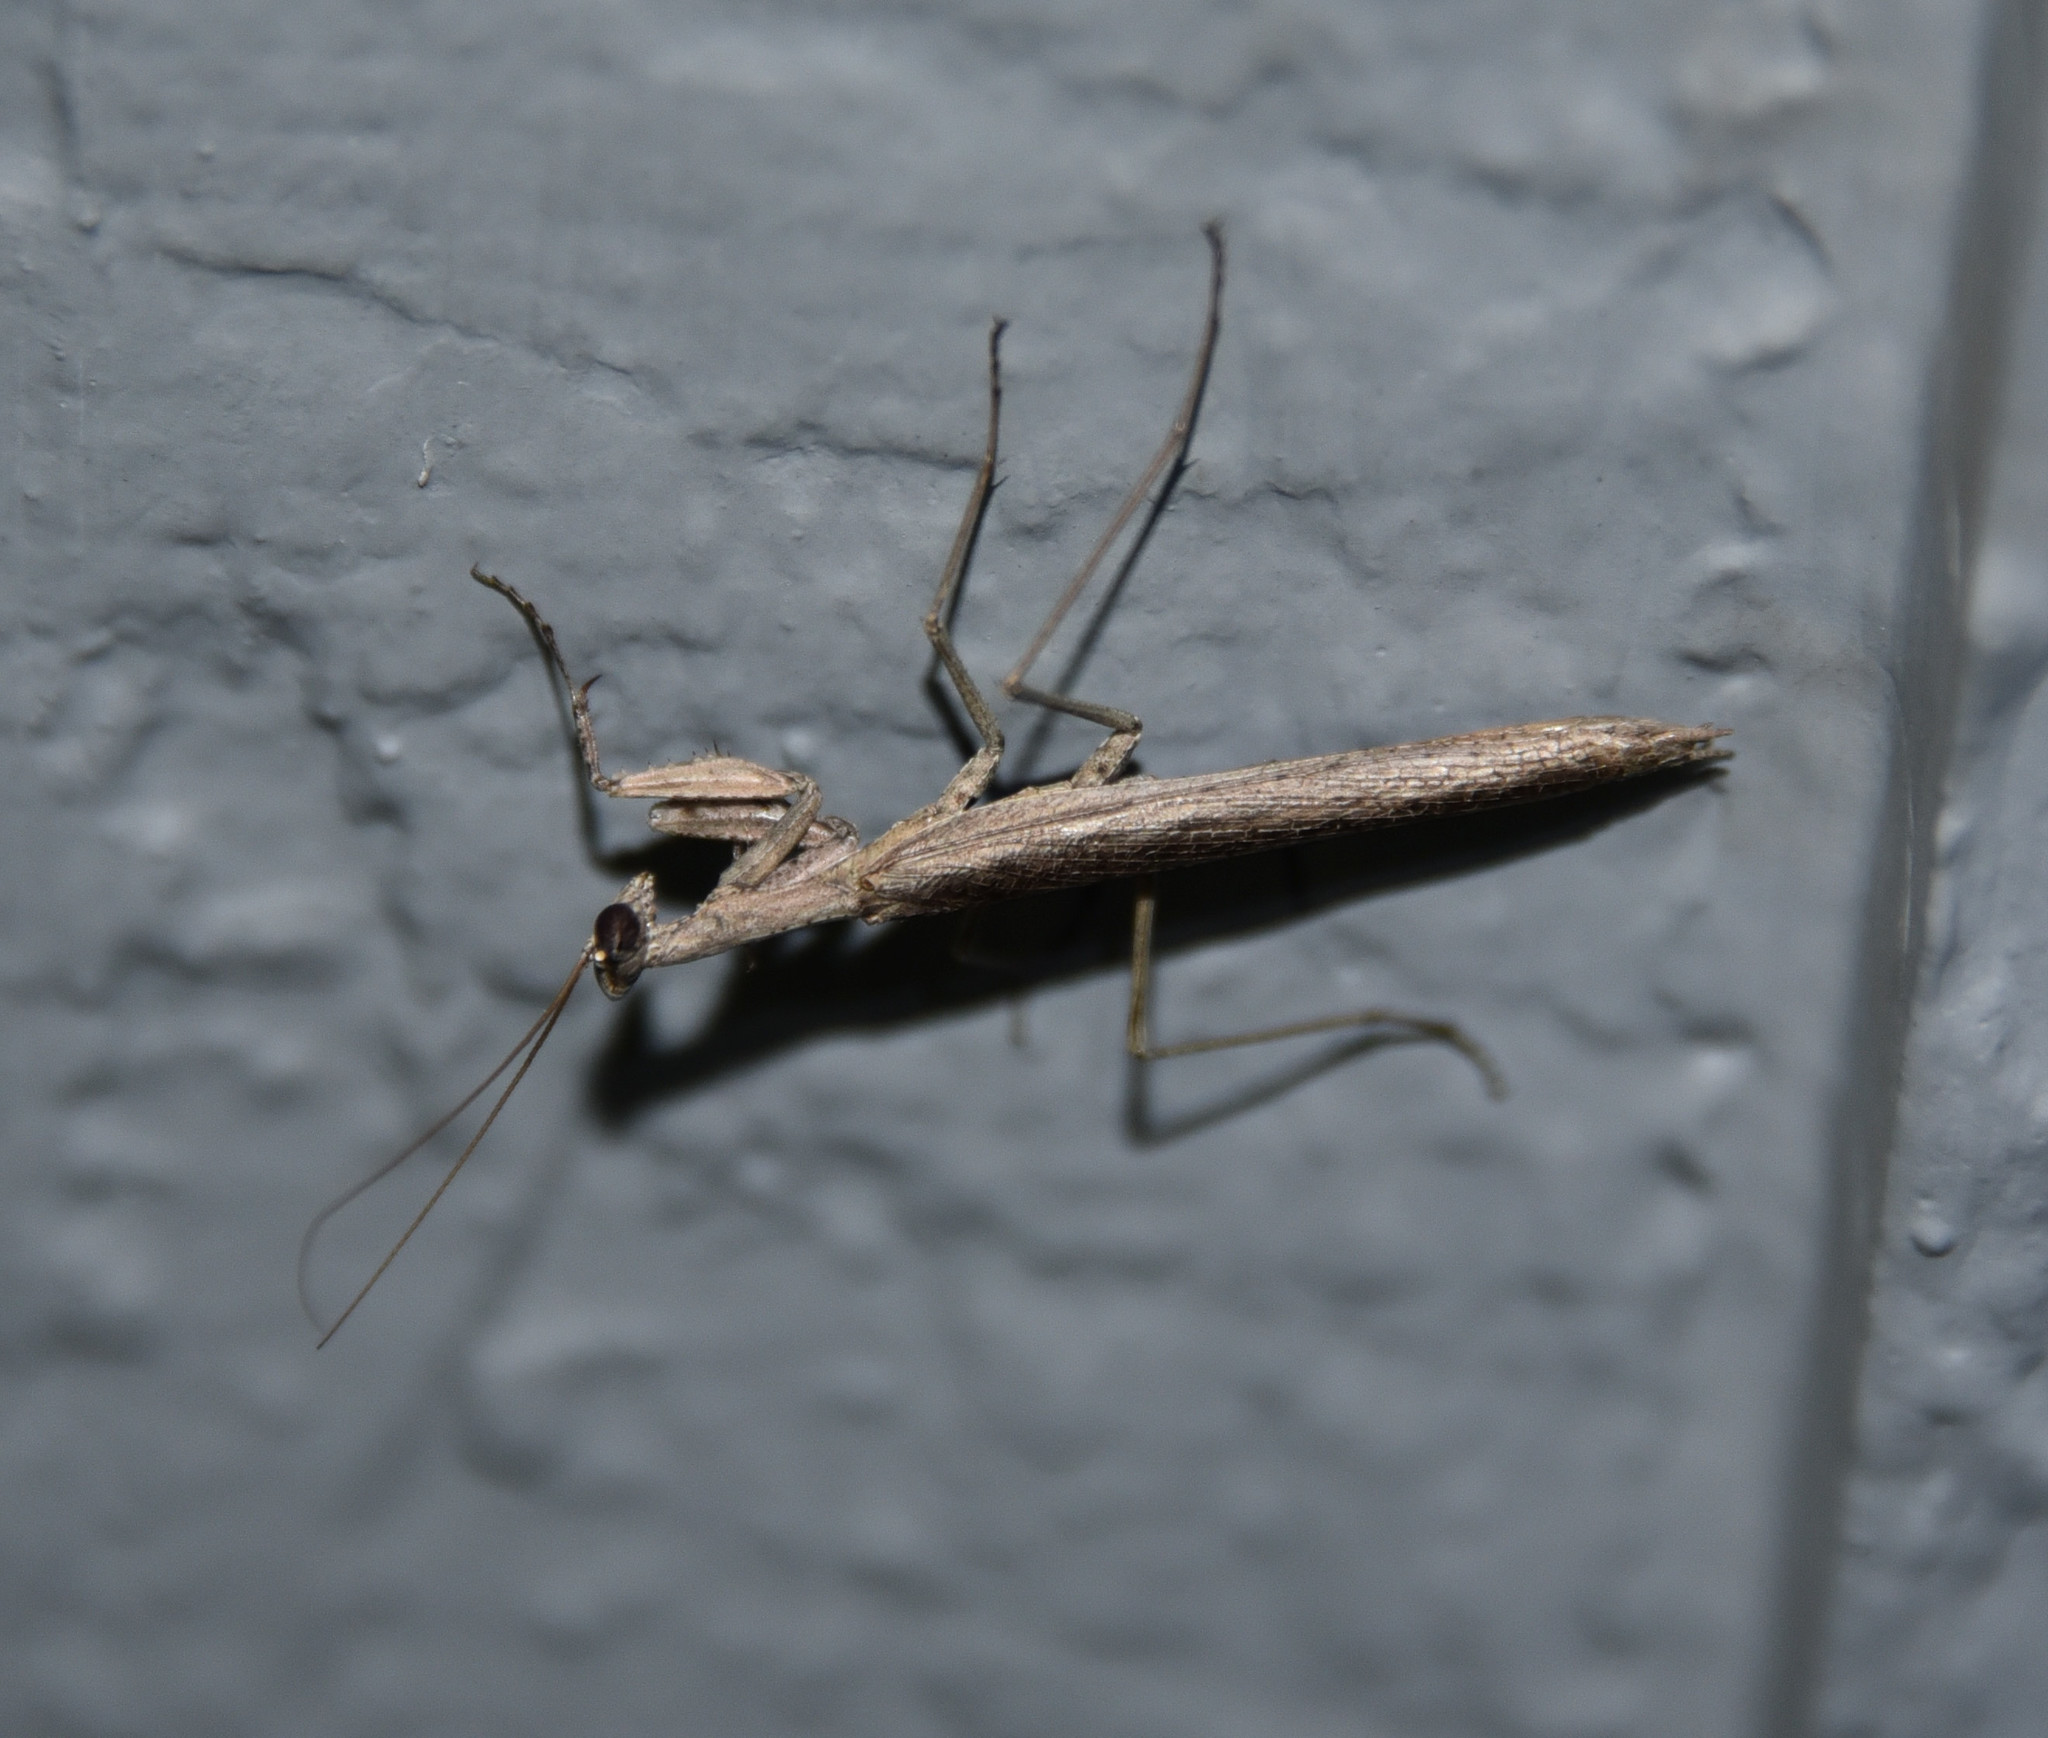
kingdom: Animalia
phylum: Arthropoda
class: Insecta
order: Mantodea
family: Amelidae
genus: Litaneutria
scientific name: Litaneutria minor
